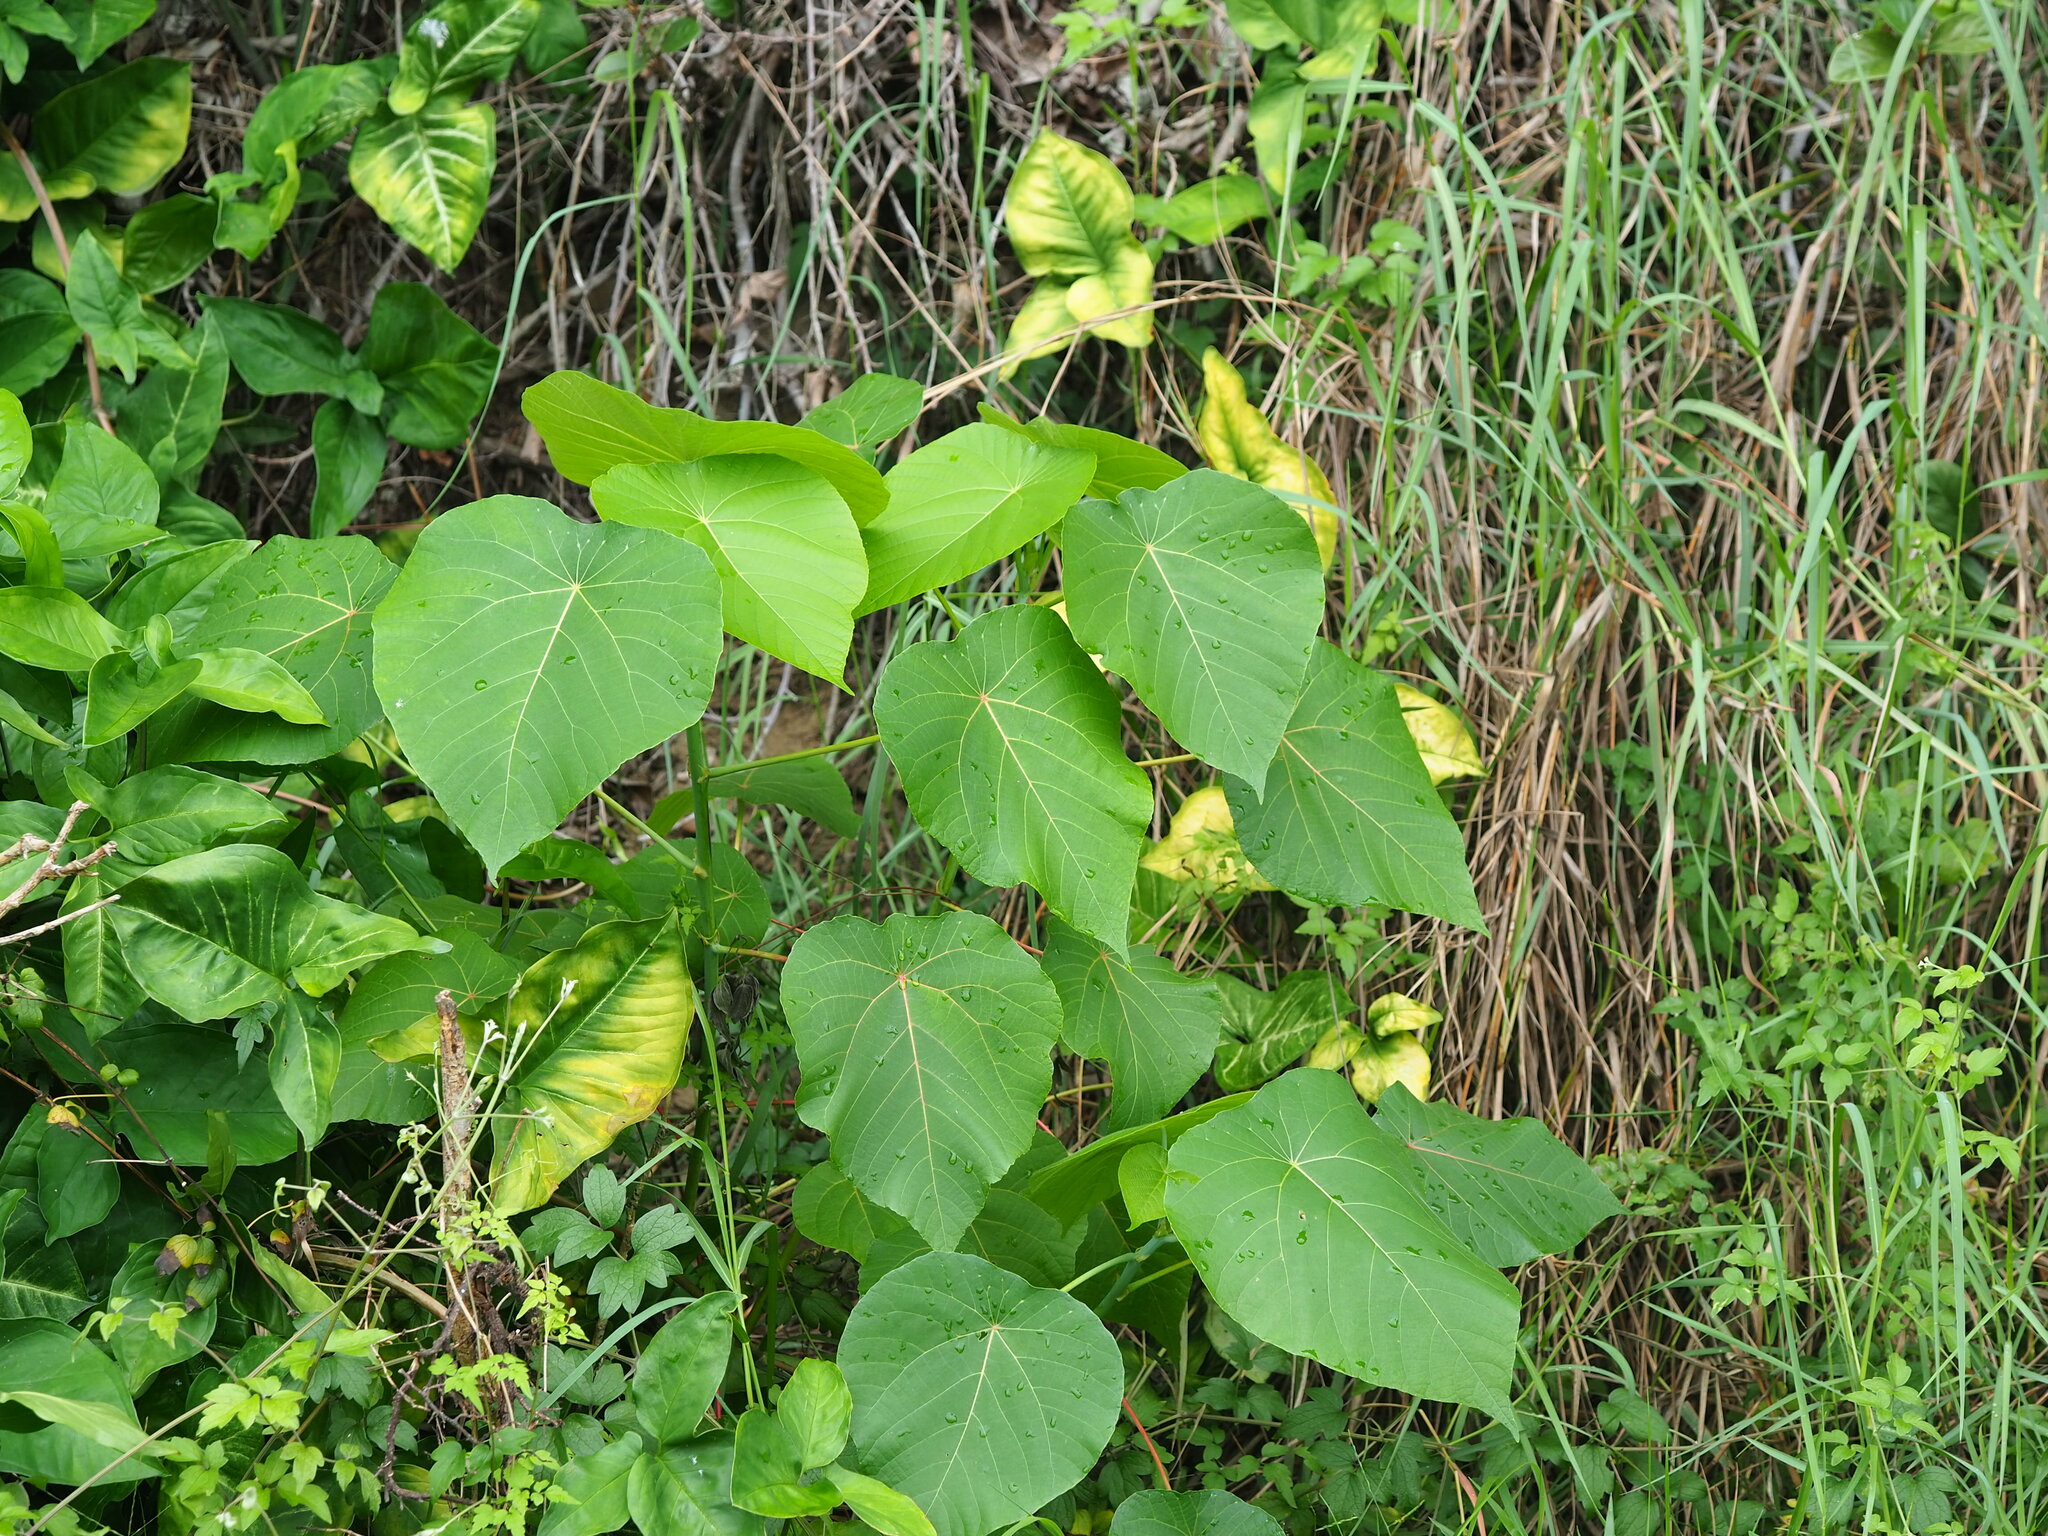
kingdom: Plantae
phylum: Tracheophyta
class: Magnoliopsida
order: Malpighiales
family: Euphorbiaceae
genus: Macaranga
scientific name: Macaranga tanarius
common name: Parasol leaf tree
